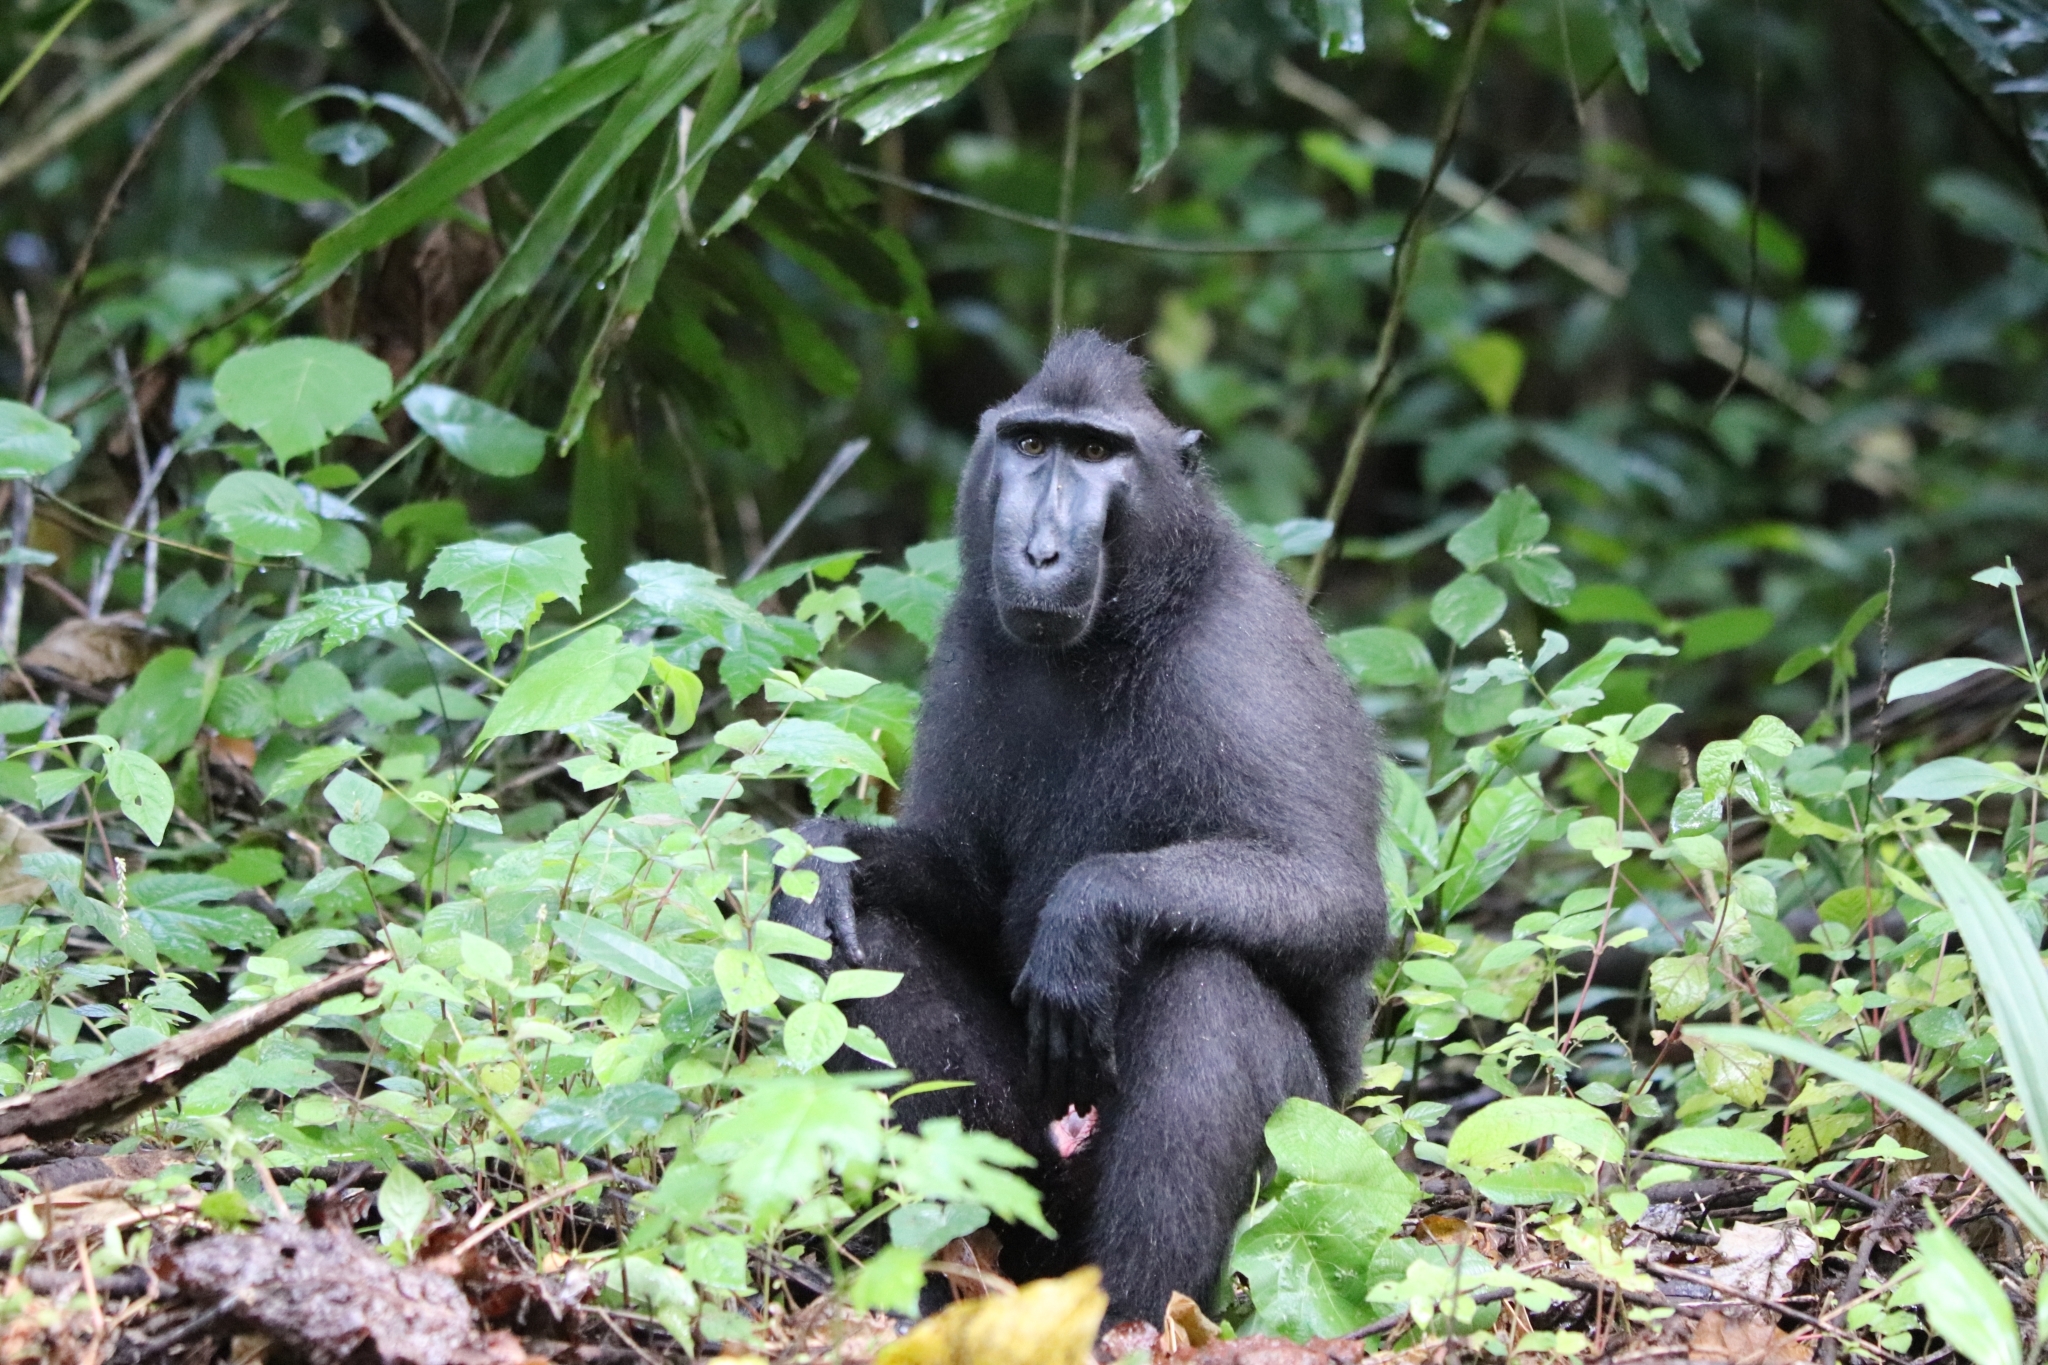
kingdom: Animalia
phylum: Chordata
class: Mammalia
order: Primates
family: Cercopithecidae
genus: Macaca
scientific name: Macaca nigra
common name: Celebes crested macaque
